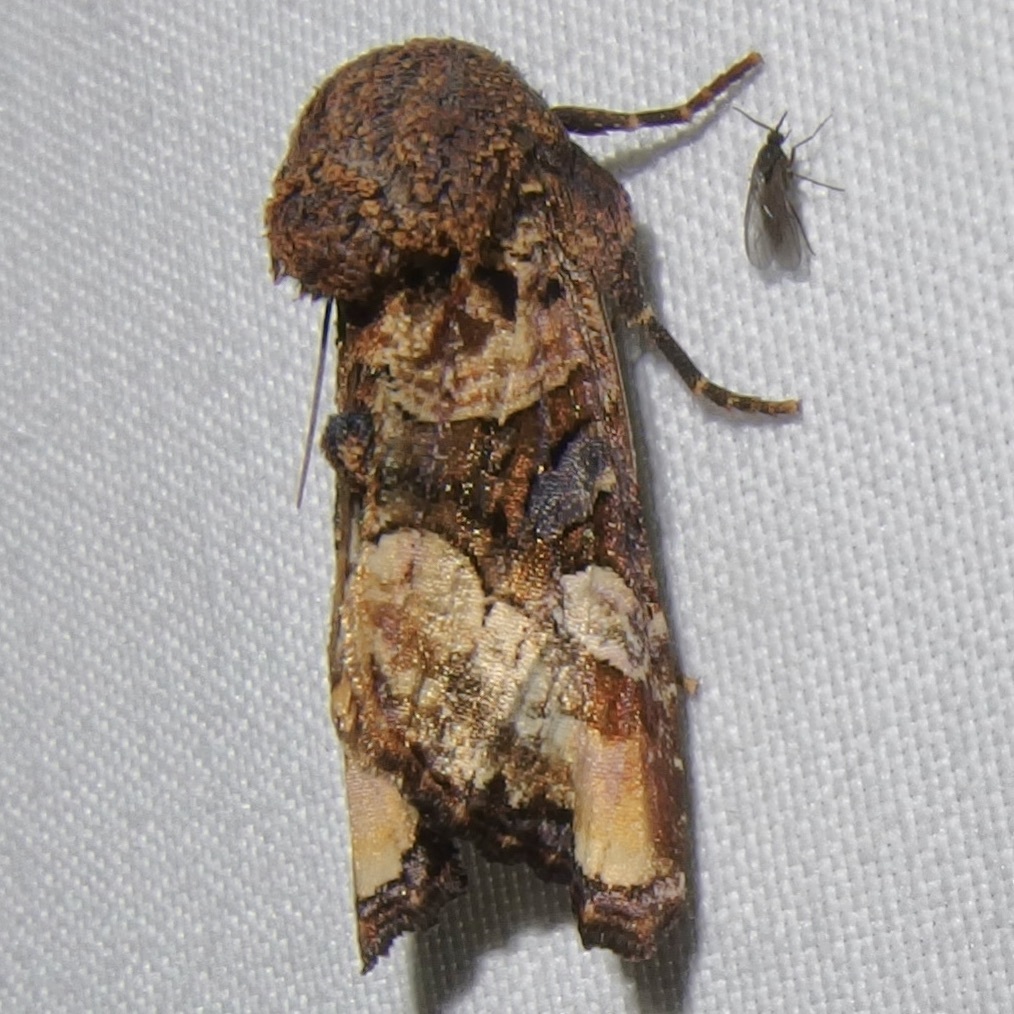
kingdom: Animalia
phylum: Arthropoda
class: Insecta
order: Lepidoptera
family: Noctuidae
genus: Euplexia
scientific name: Euplexia triplaga
